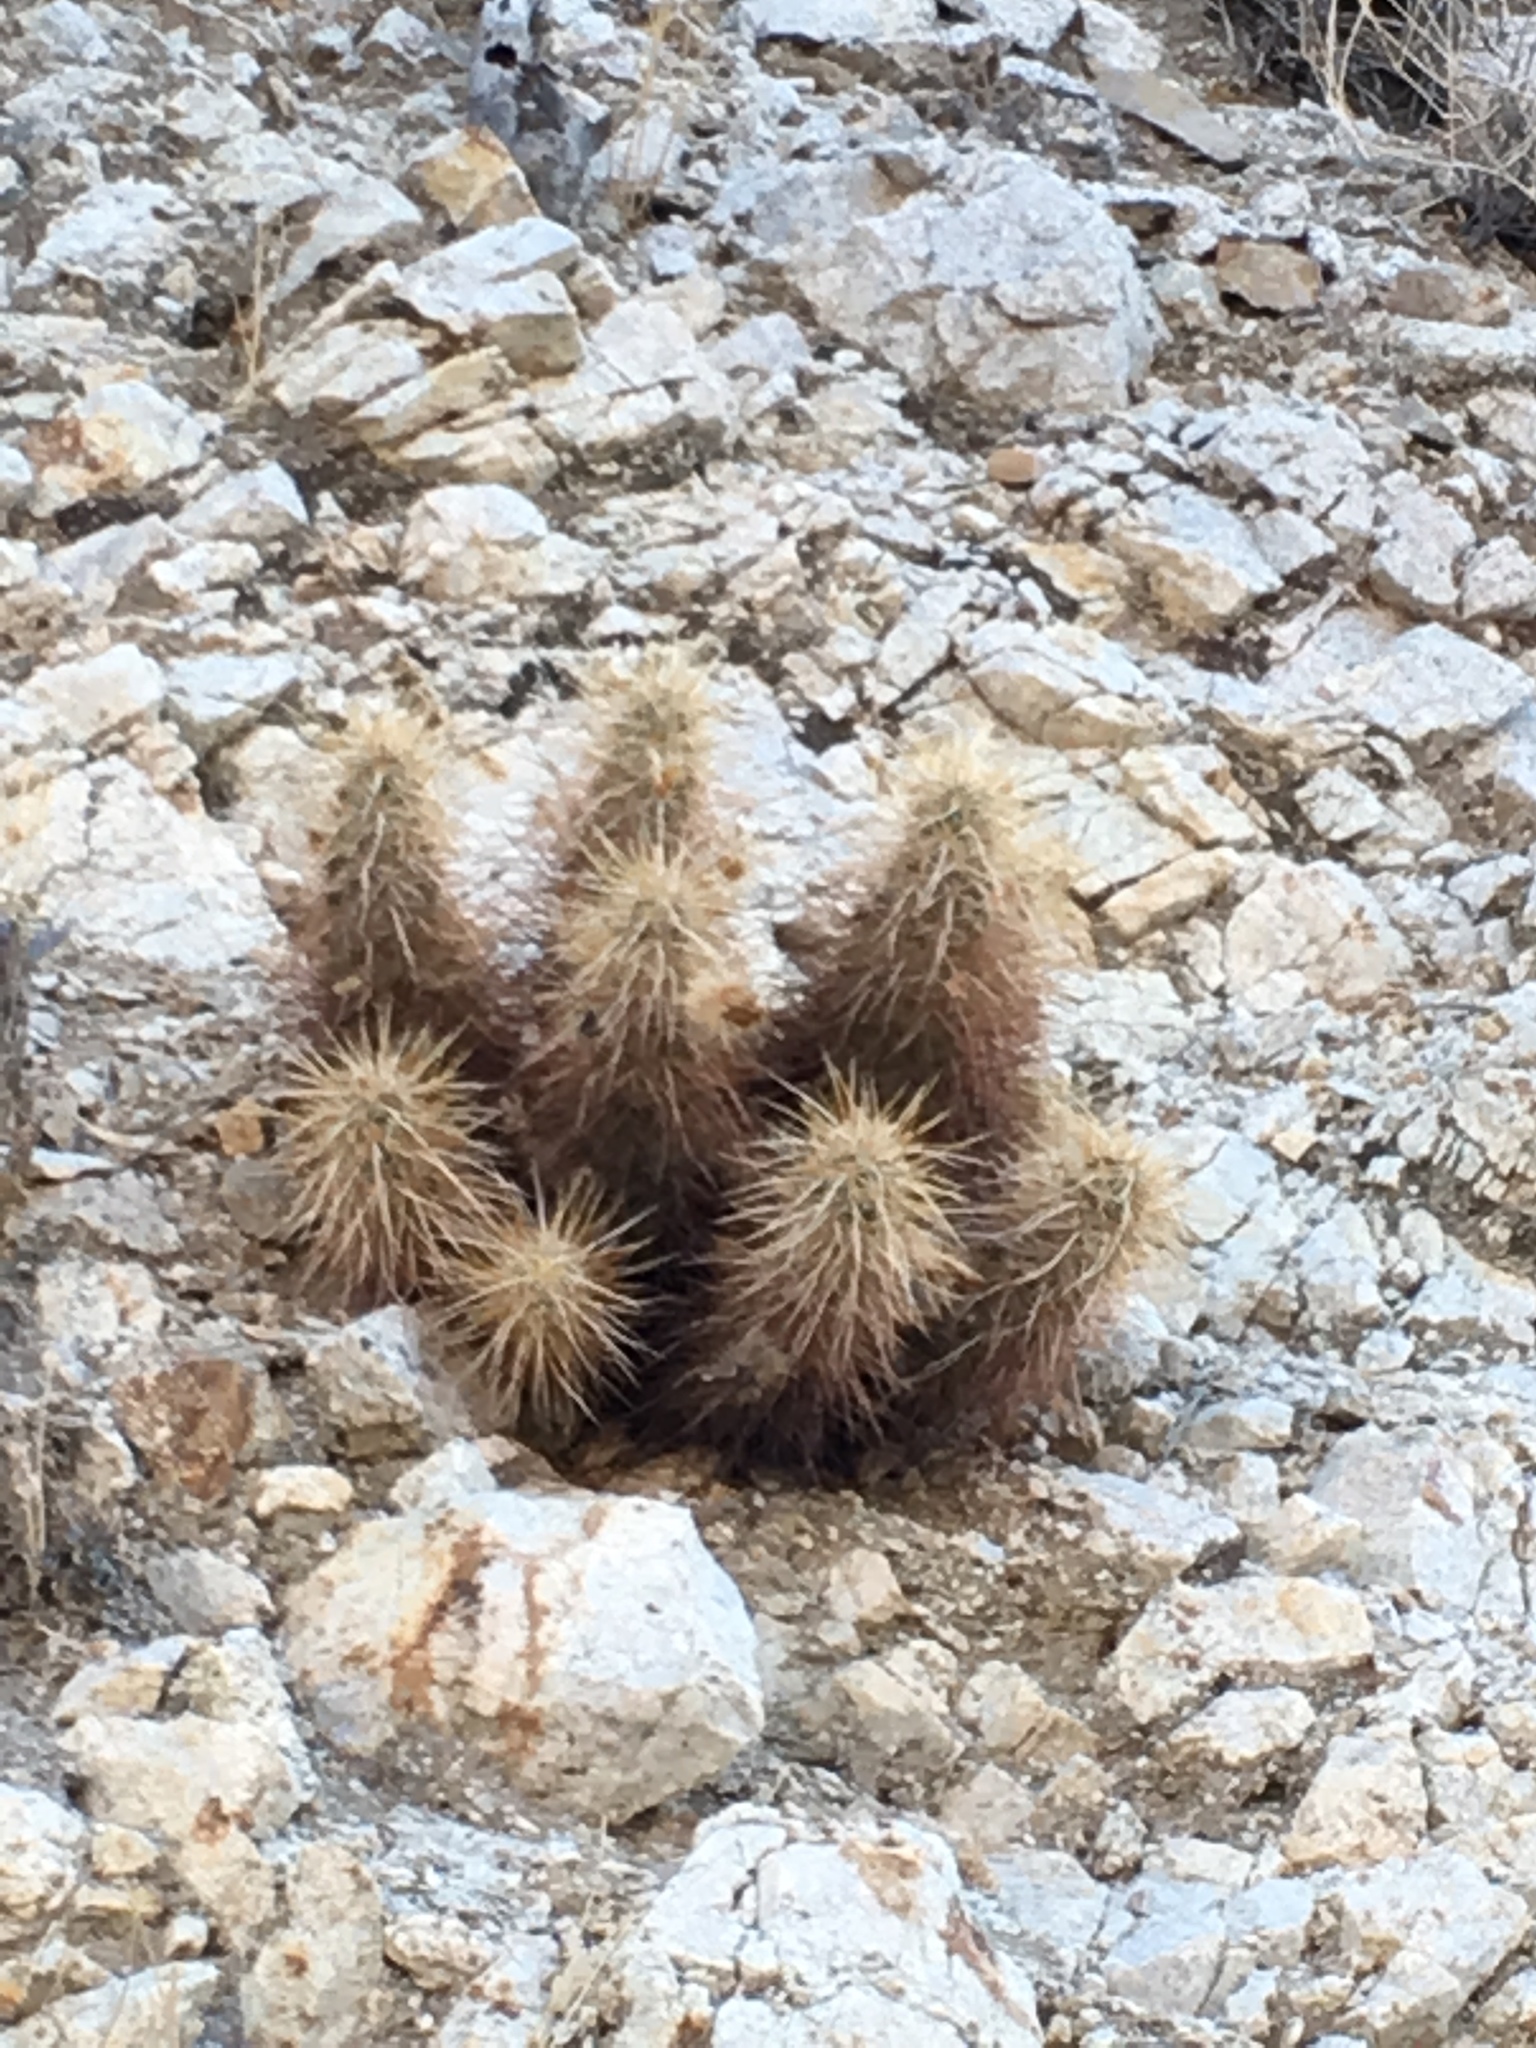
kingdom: Plantae
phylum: Tracheophyta
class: Magnoliopsida
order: Caryophyllales
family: Cactaceae
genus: Echinocereus
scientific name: Echinocereus engelmannii
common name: Engelmann's hedgehog cactus
